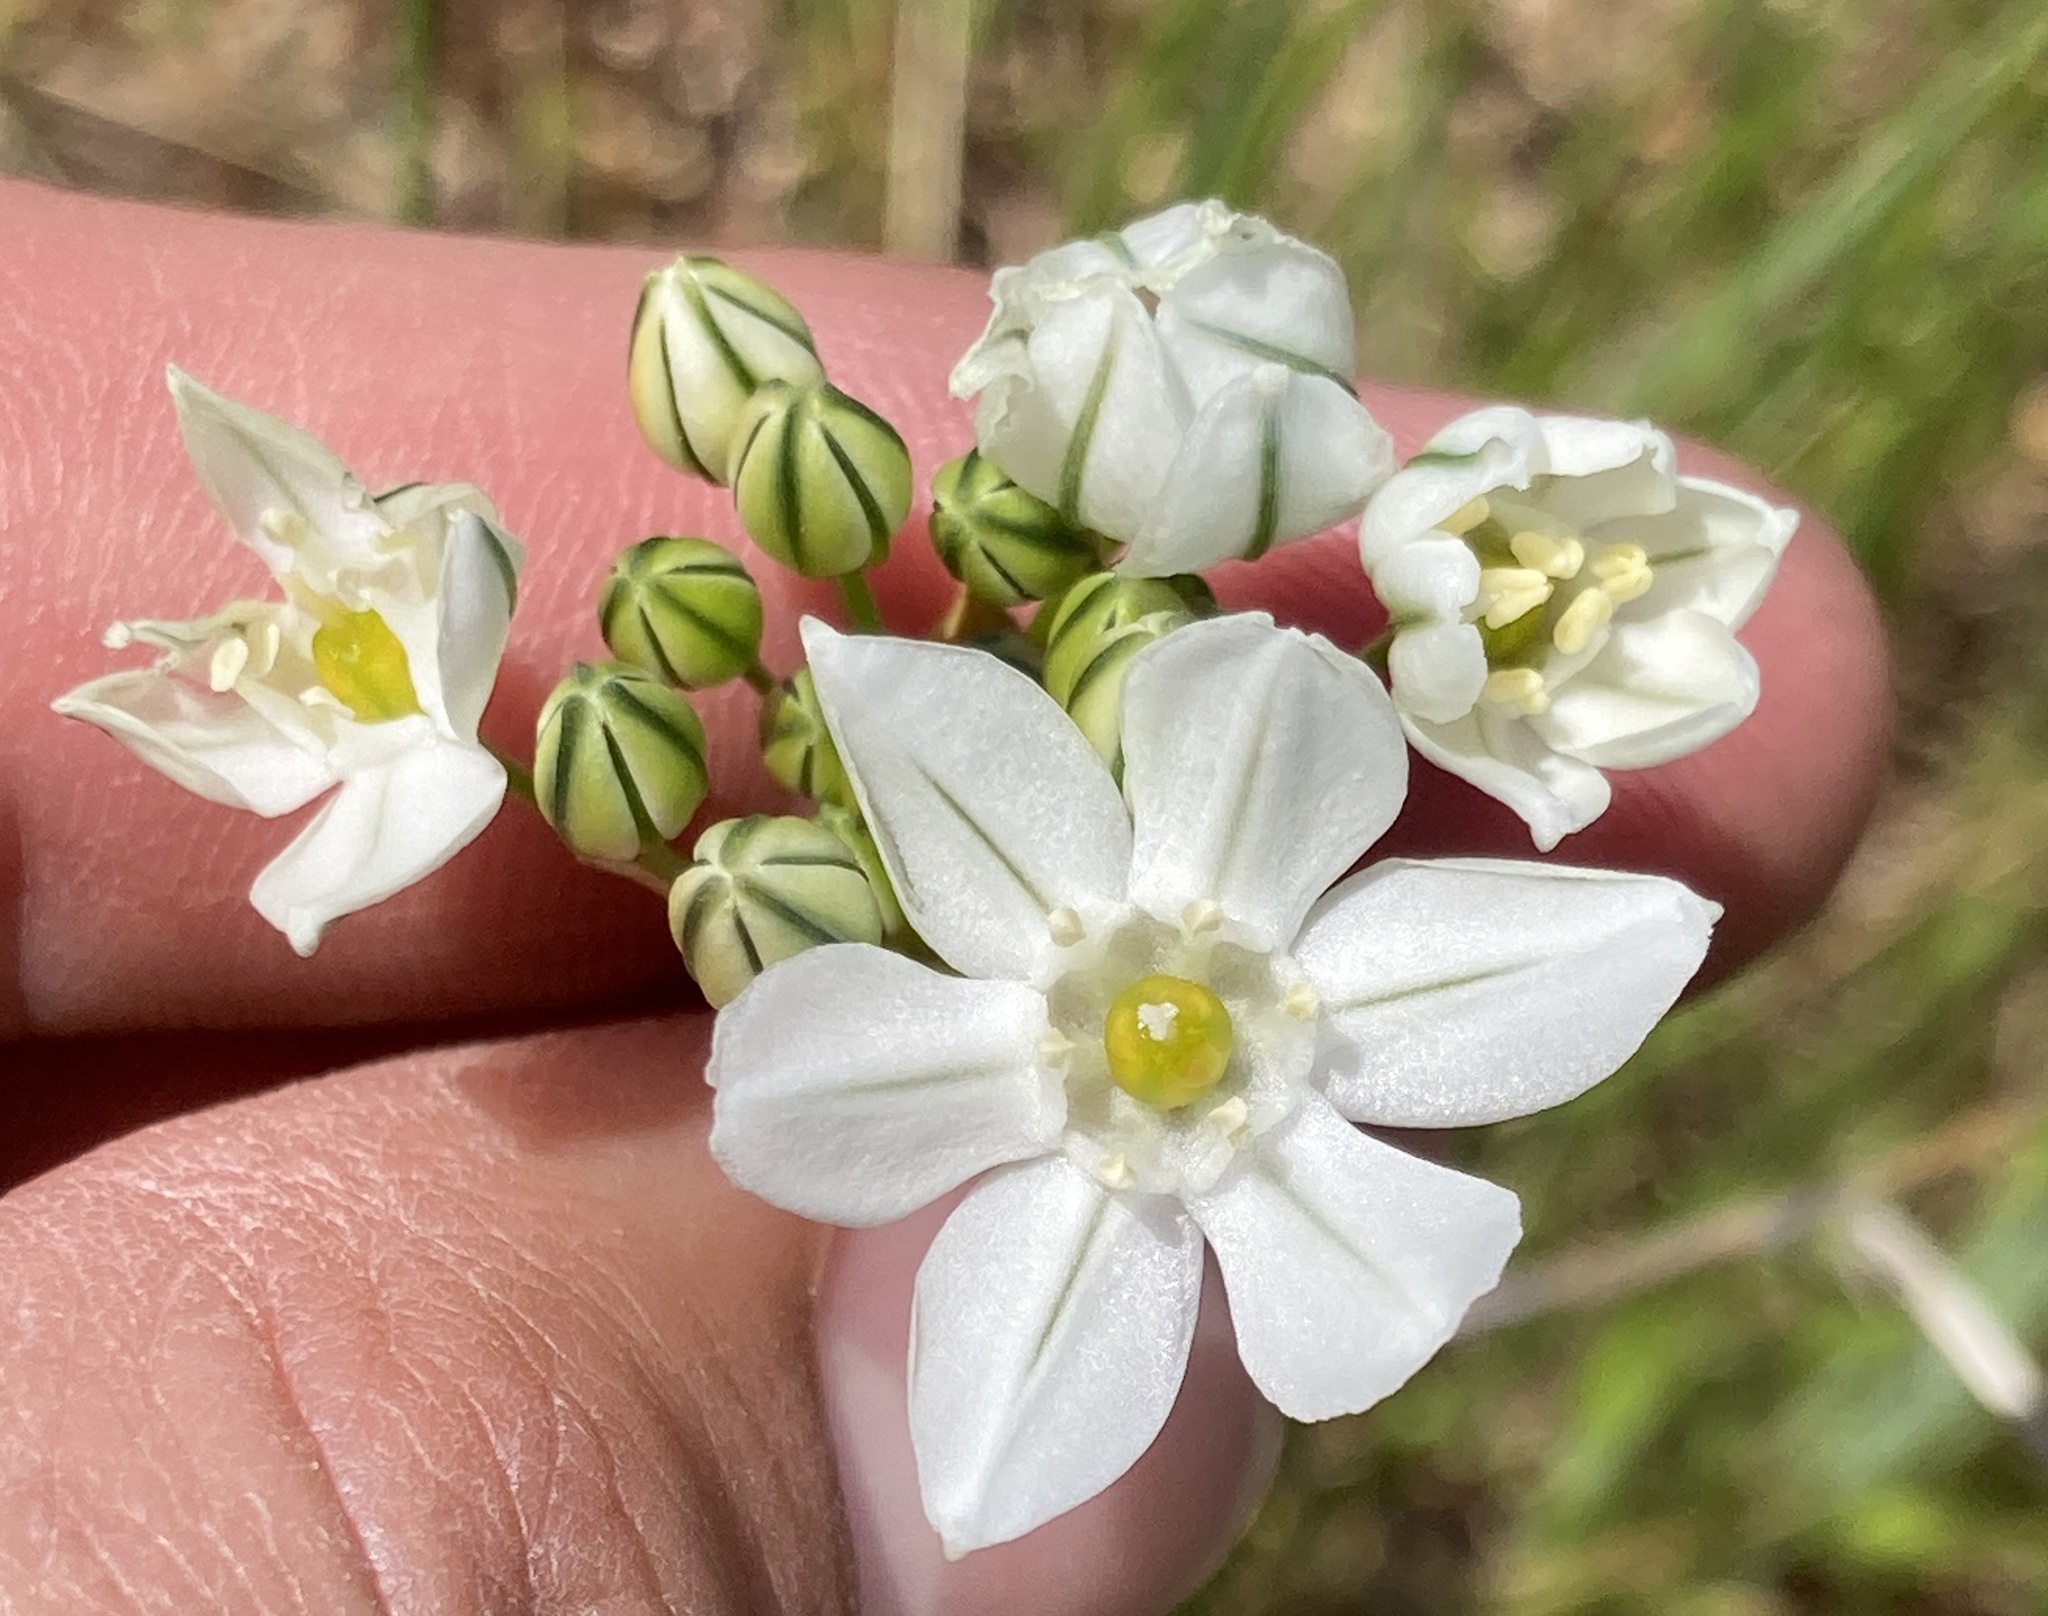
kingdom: Plantae
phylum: Tracheophyta
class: Liliopsida
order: Asparagales
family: Asparagaceae
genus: Triteleia
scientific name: Triteleia hyacinthina
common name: White brodiaea
